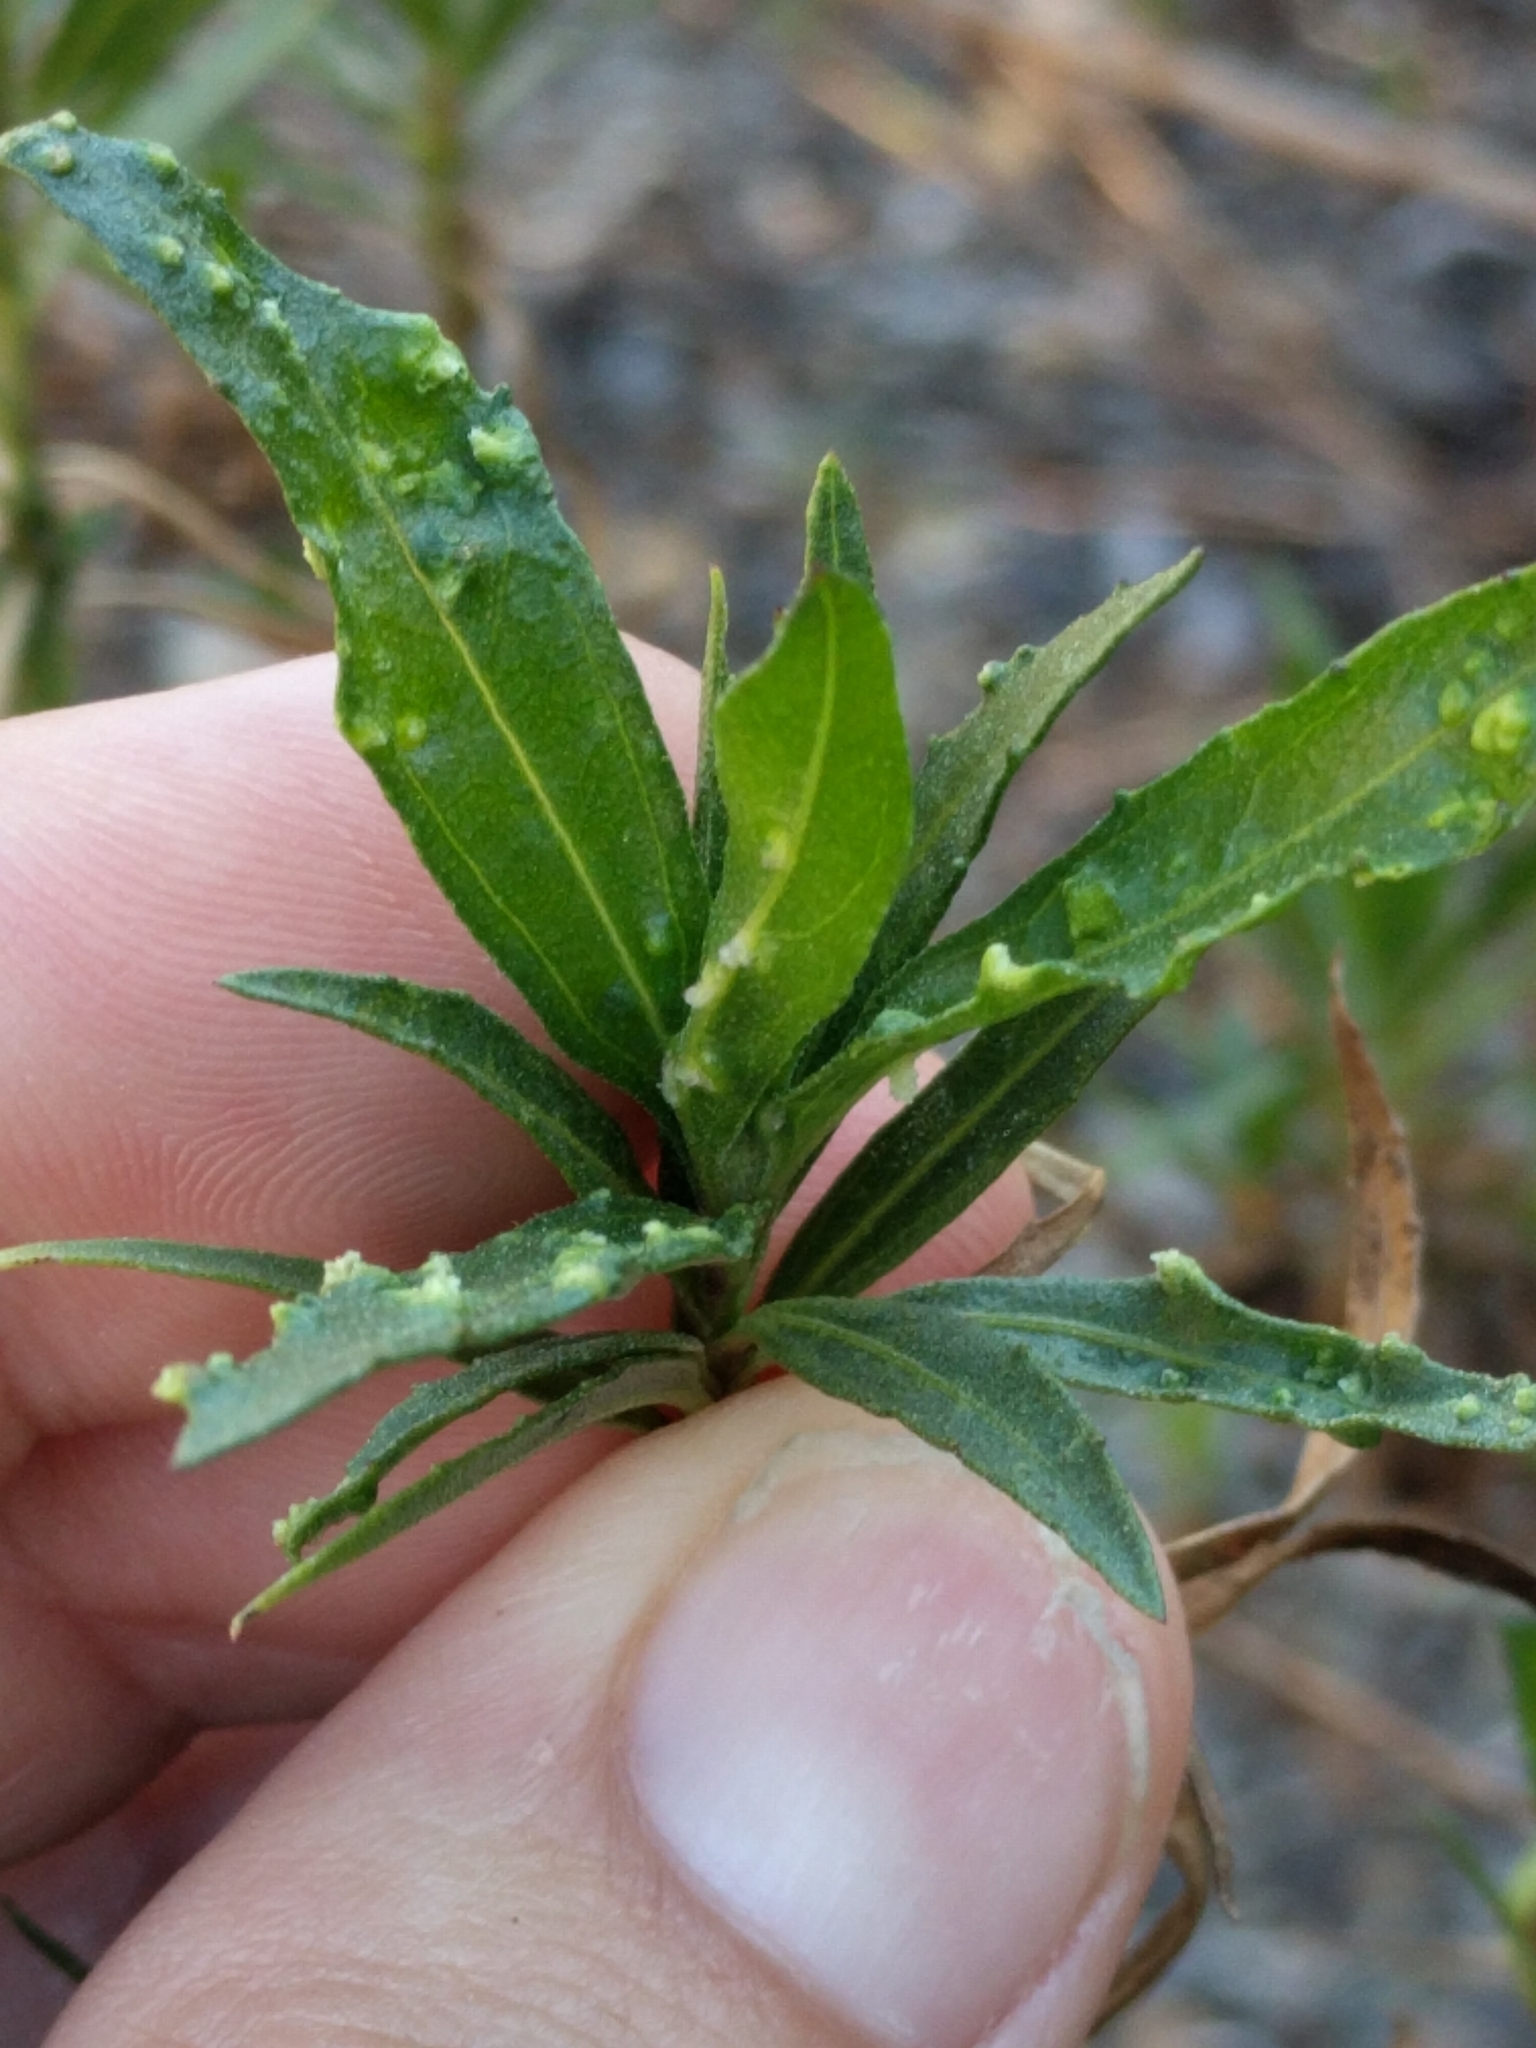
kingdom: Animalia
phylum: Arthropoda
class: Arachnida
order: Trombidiformes
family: Eriophyidae
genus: Aceria
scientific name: Aceria
